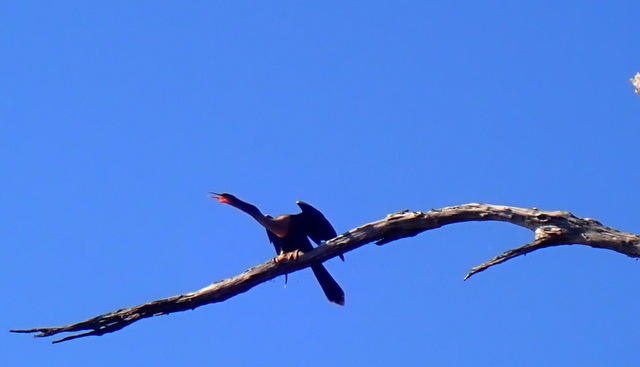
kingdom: Animalia
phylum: Chordata
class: Aves
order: Suliformes
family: Anhingidae
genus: Anhinga
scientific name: Anhinga anhinga
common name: Anhinga
